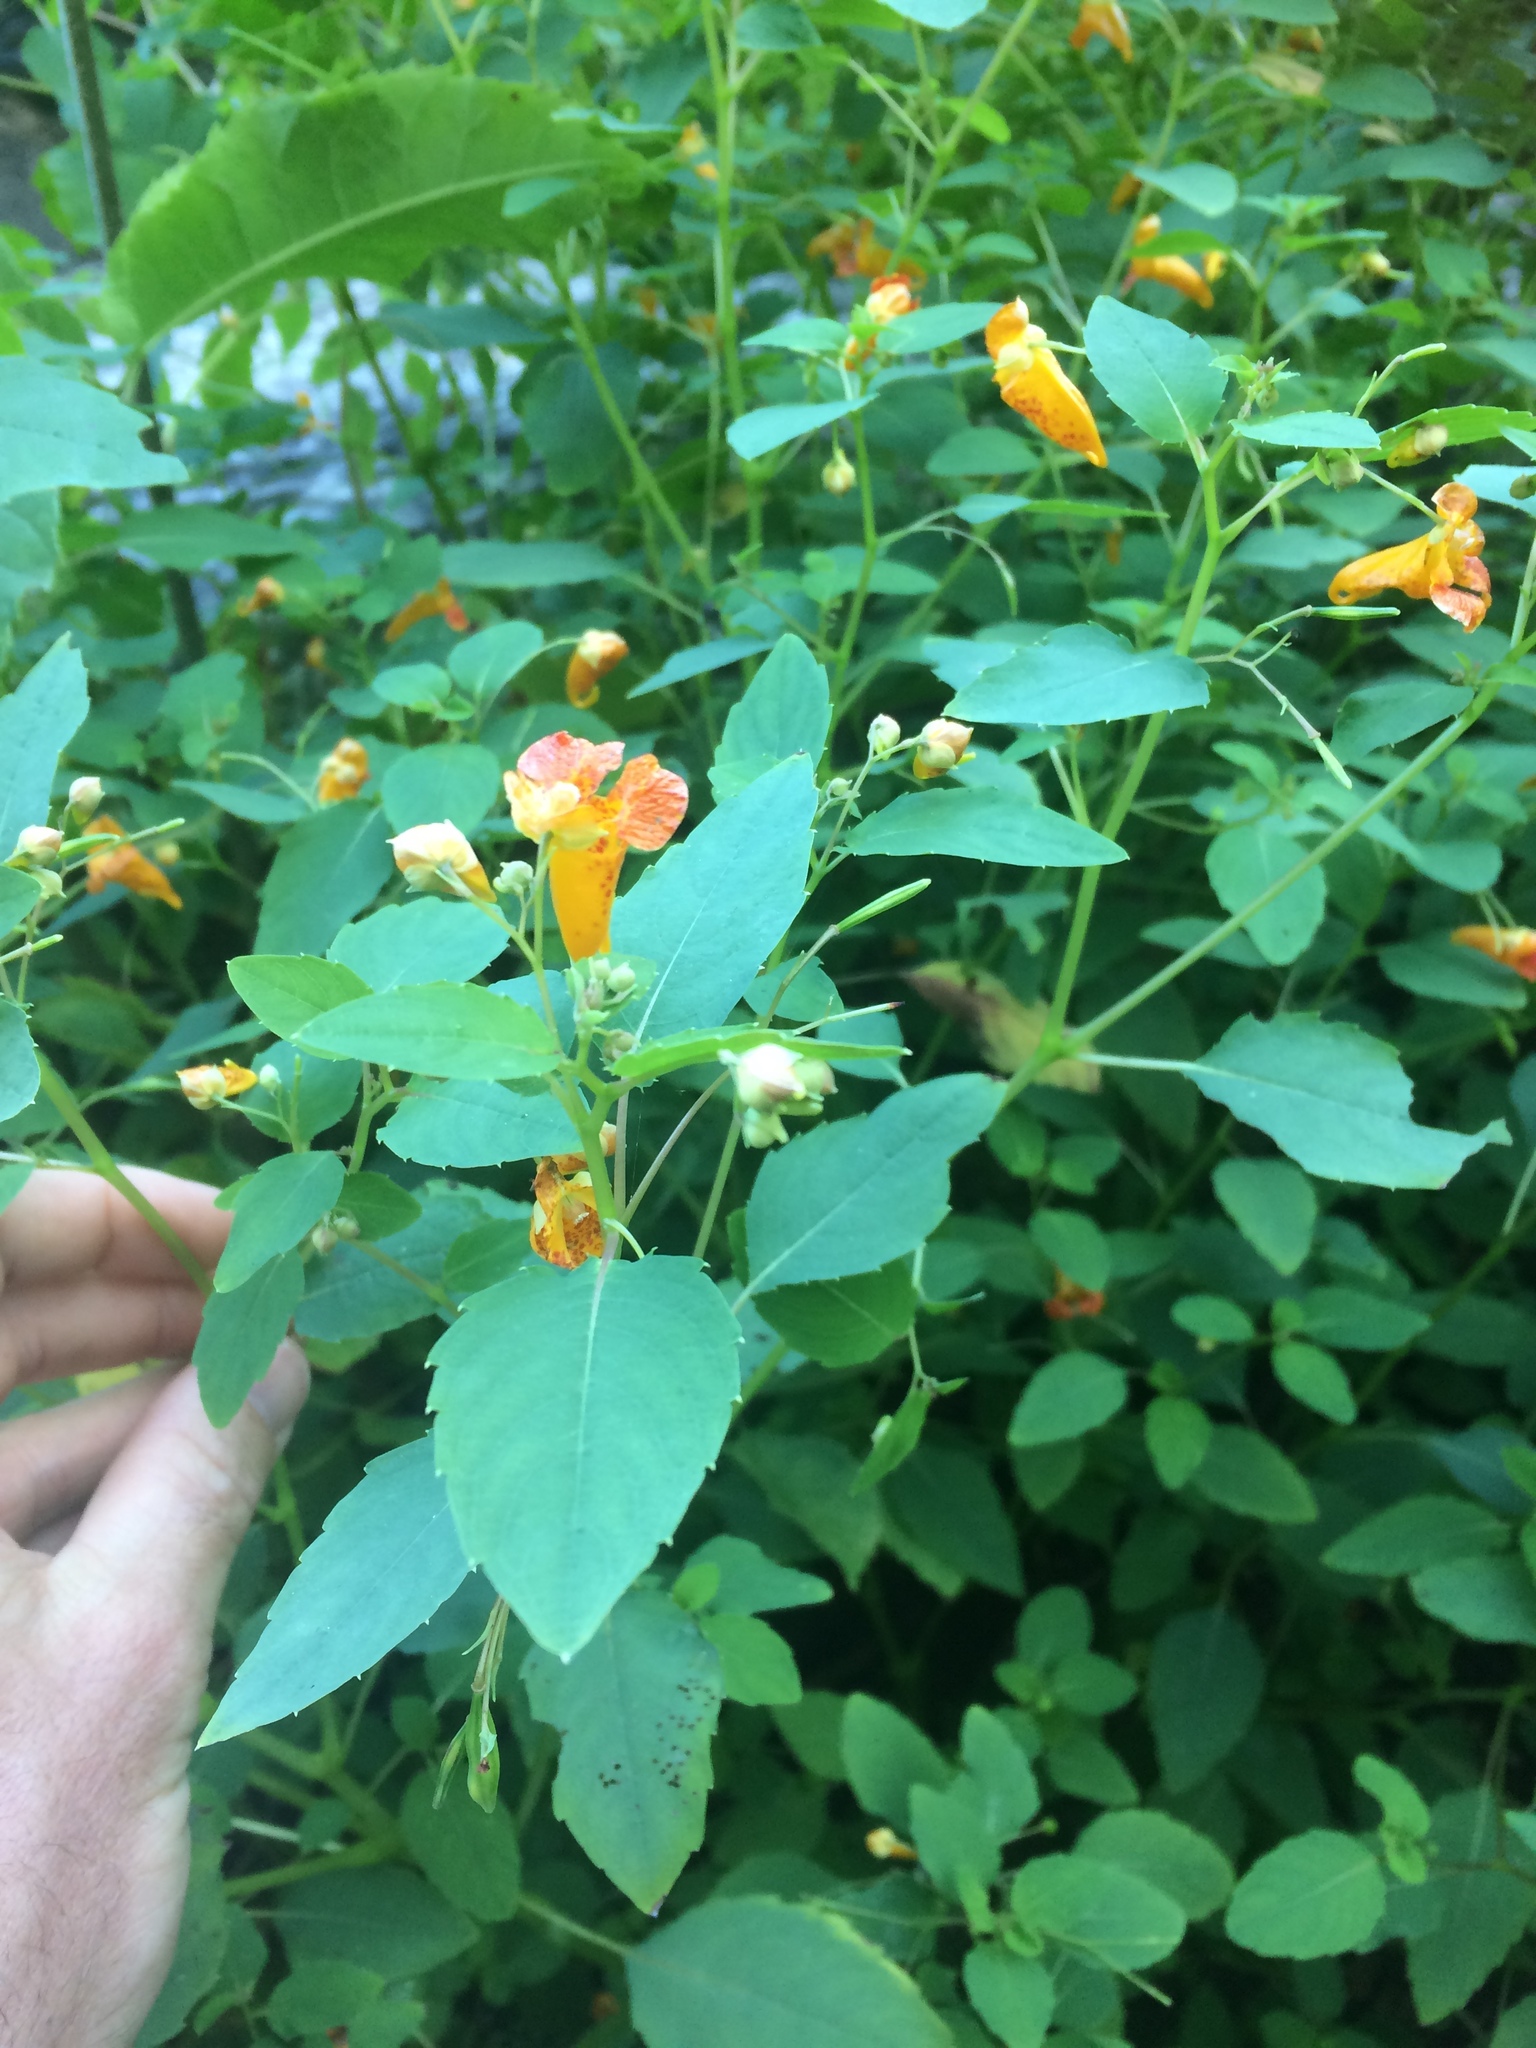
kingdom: Plantae
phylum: Tracheophyta
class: Magnoliopsida
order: Ericales
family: Balsaminaceae
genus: Impatiens
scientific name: Impatiens capensis
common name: Orange balsam
